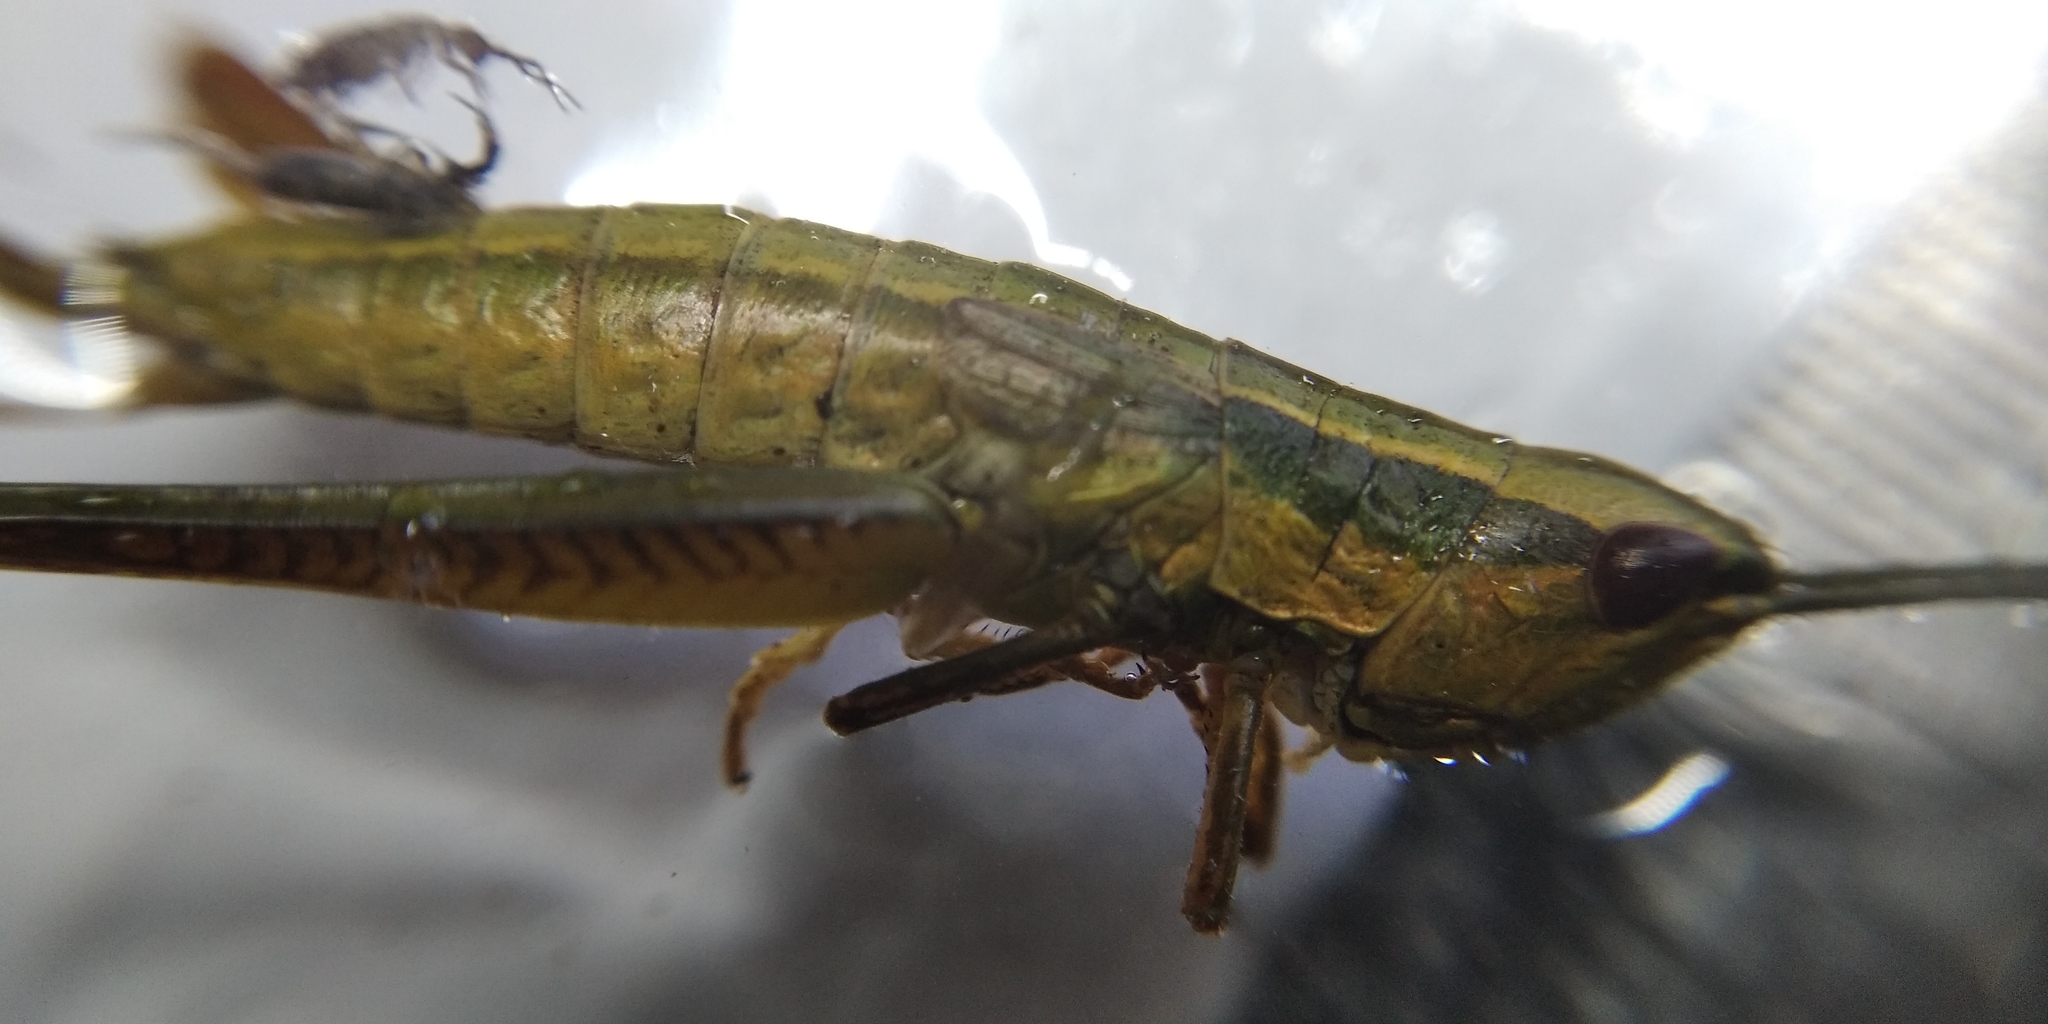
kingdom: Animalia
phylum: Arthropoda
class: Insecta
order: Orthoptera
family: Acrididae
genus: Euthystira
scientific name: Euthystira brachyptera
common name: Small gold grasshopper
